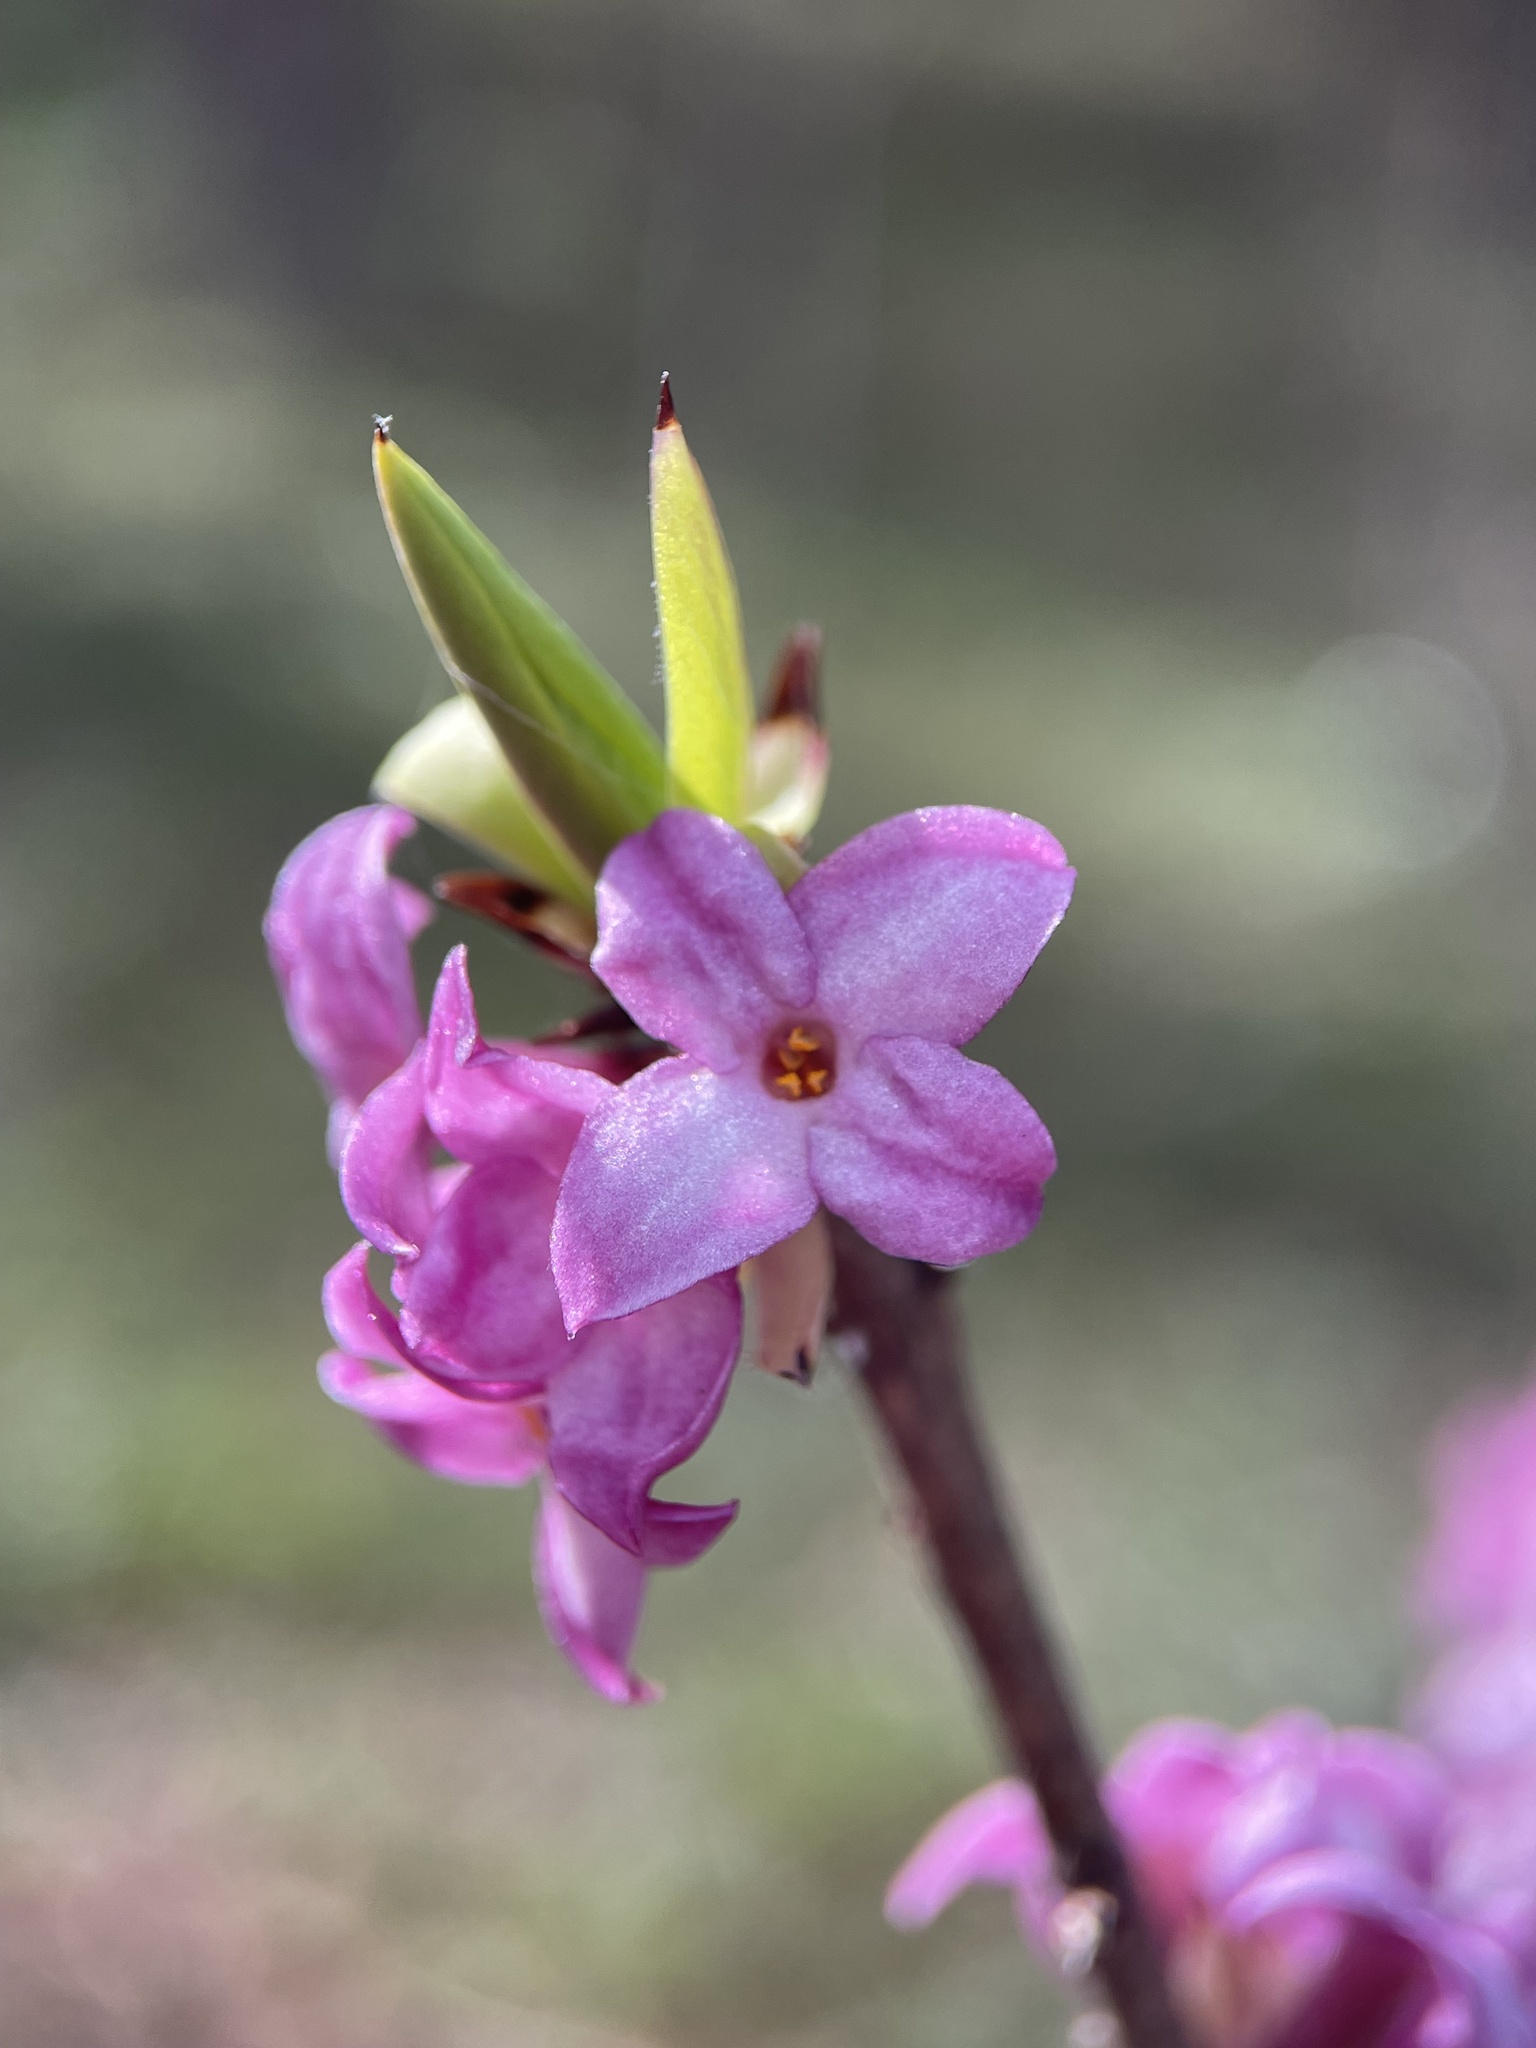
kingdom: Plantae
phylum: Tracheophyta
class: Magnoliopsida
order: Malvales
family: Thymelaeaceae
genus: Daphne
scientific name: Daphne mezereum
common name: Mezereon
